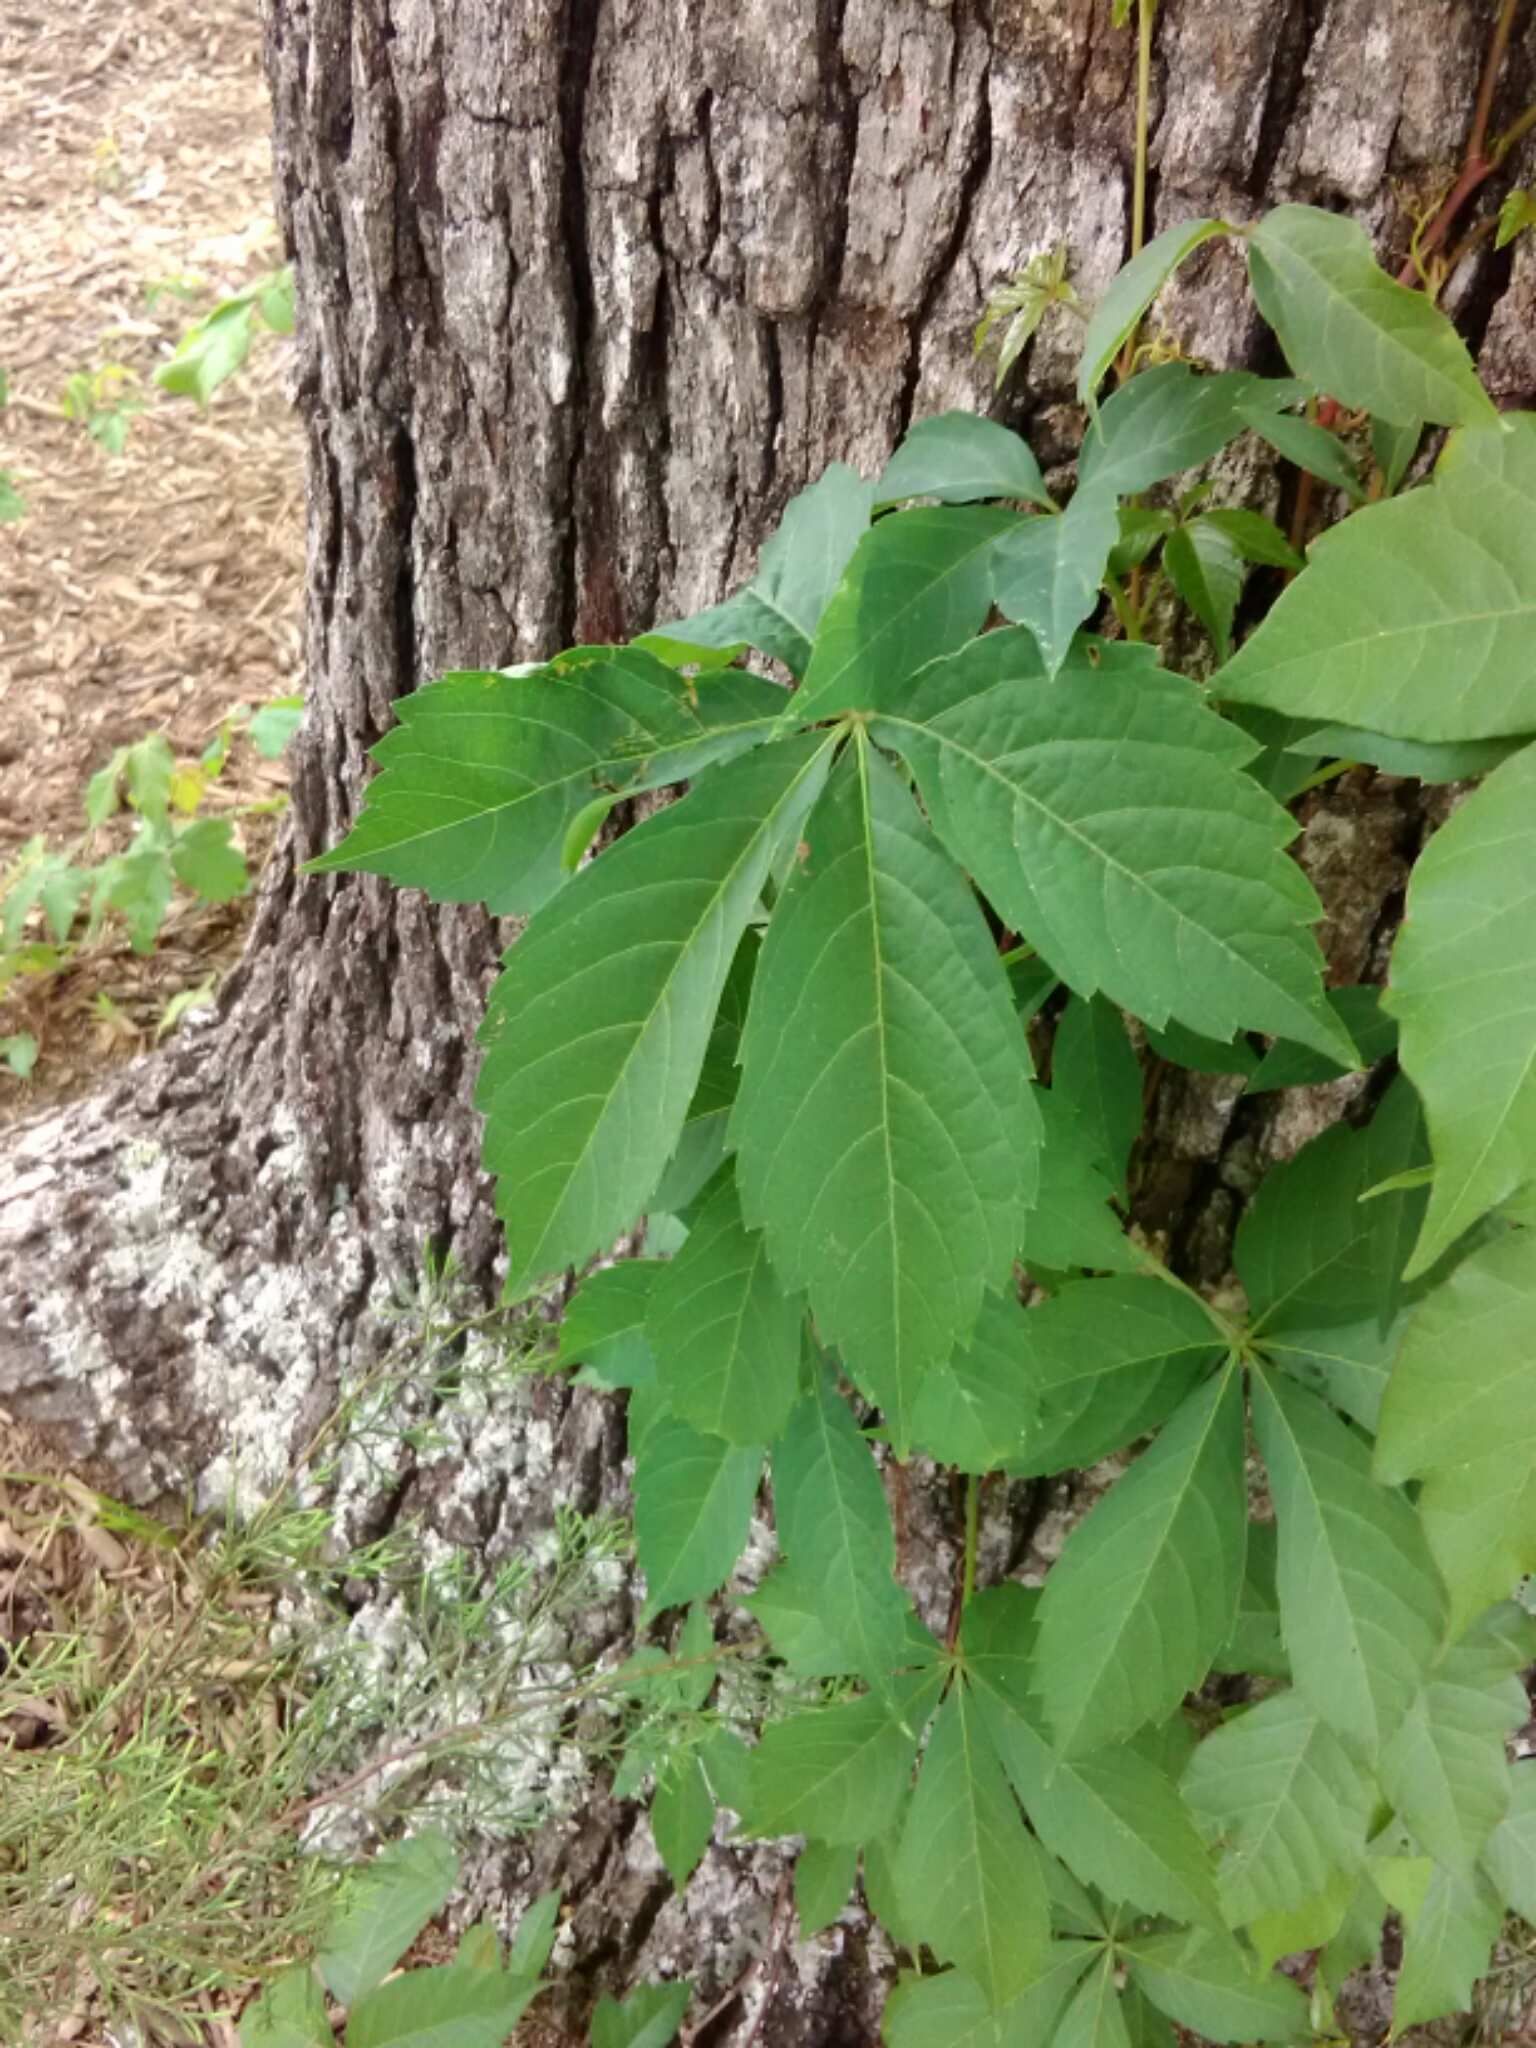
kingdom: Plantae
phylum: Tracheophyta
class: Magnoliopsida
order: Vitales
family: Vitaceae
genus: Parthenocissus
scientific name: Parthenocissus quinquefolia
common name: Virginia-creeper
